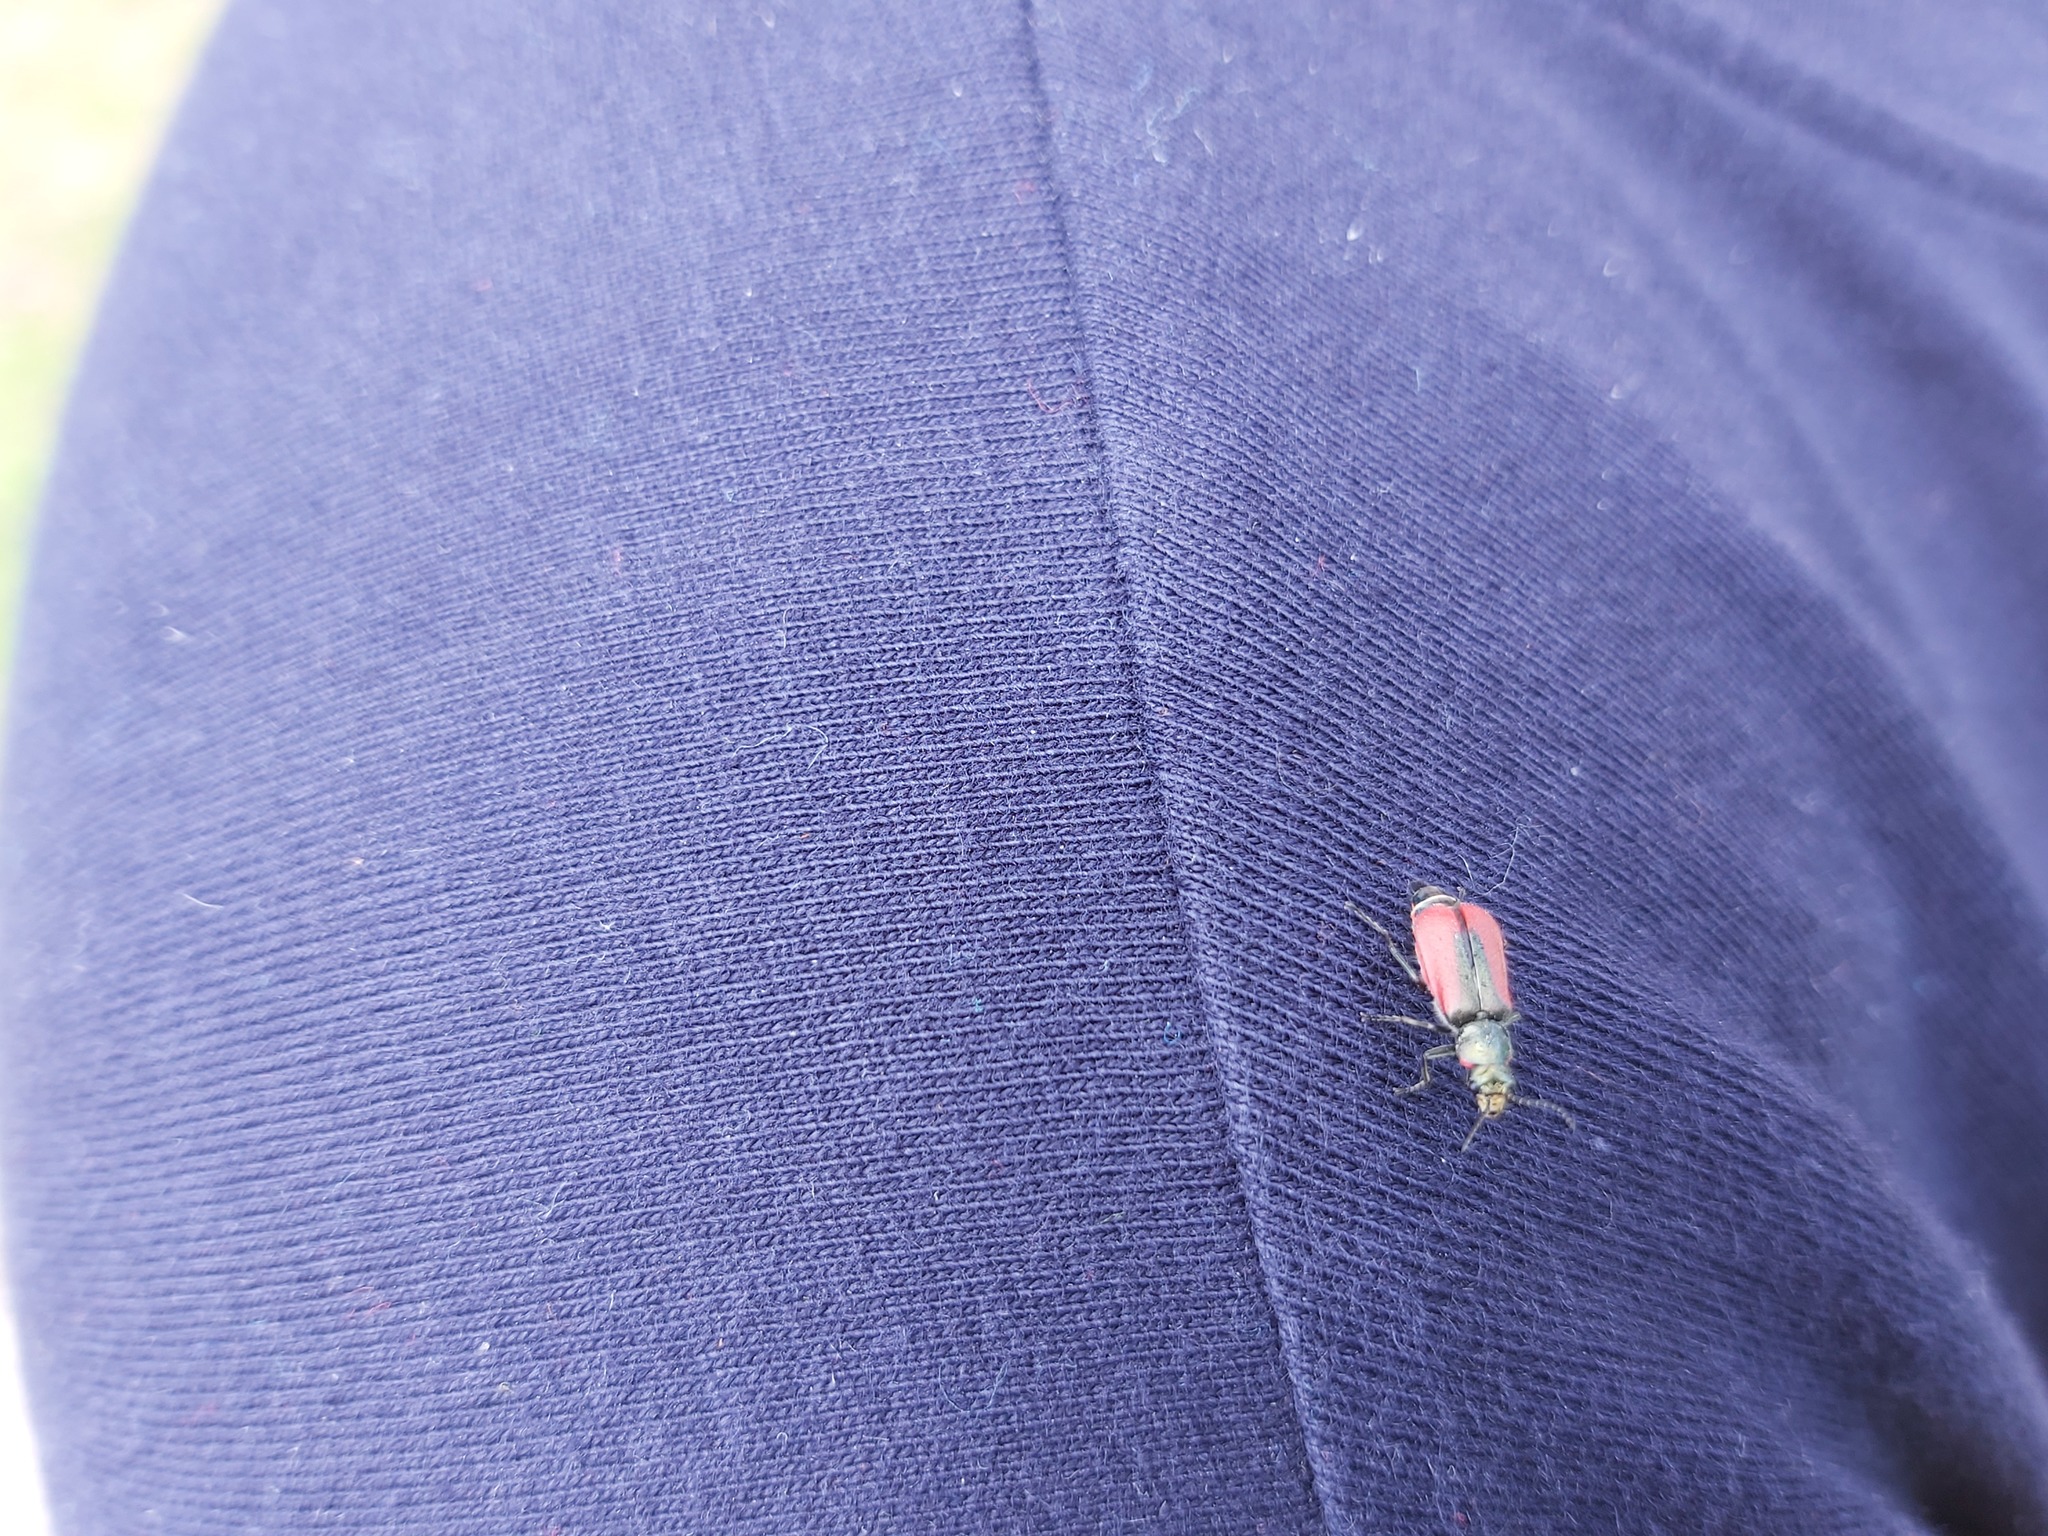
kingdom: Animalia
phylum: Arthropoda
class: Insecta
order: Coleoptera
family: Melyridae
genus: Malachius
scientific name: Malachius aeneus
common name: Scarlet malachite beetle
